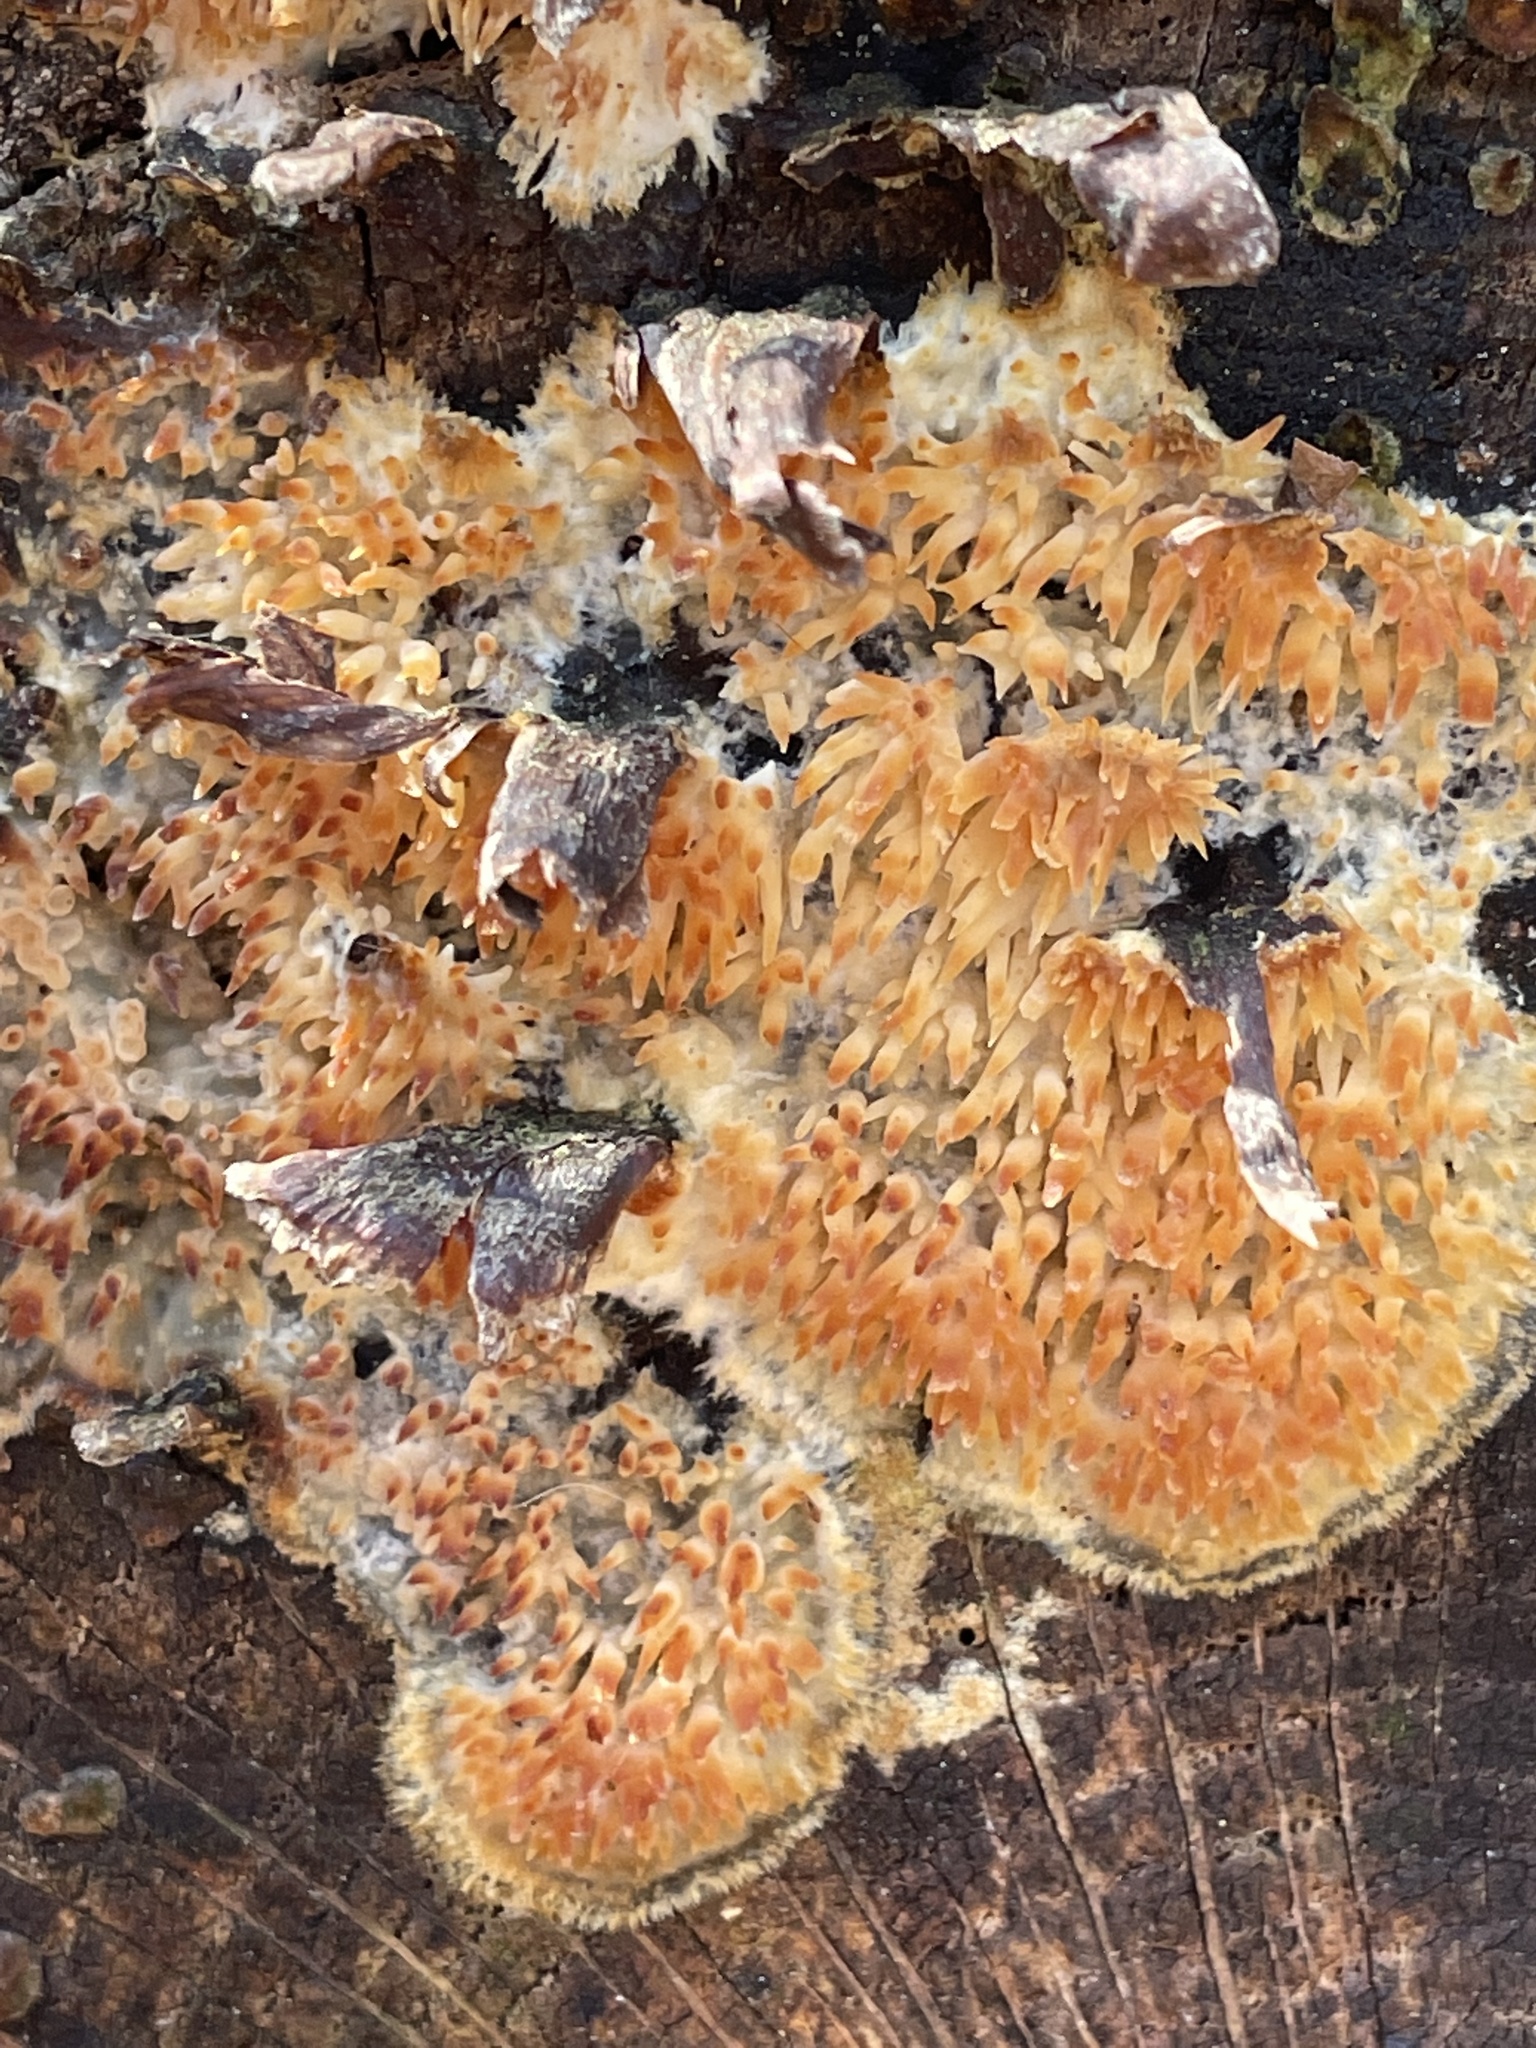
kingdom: Fungi
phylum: Basidiomycota
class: Agaricomycetes
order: Agaricales
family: Radulomycetaceae
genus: Radulomyces
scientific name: Radulomyces copelandii
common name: Asian beauty
